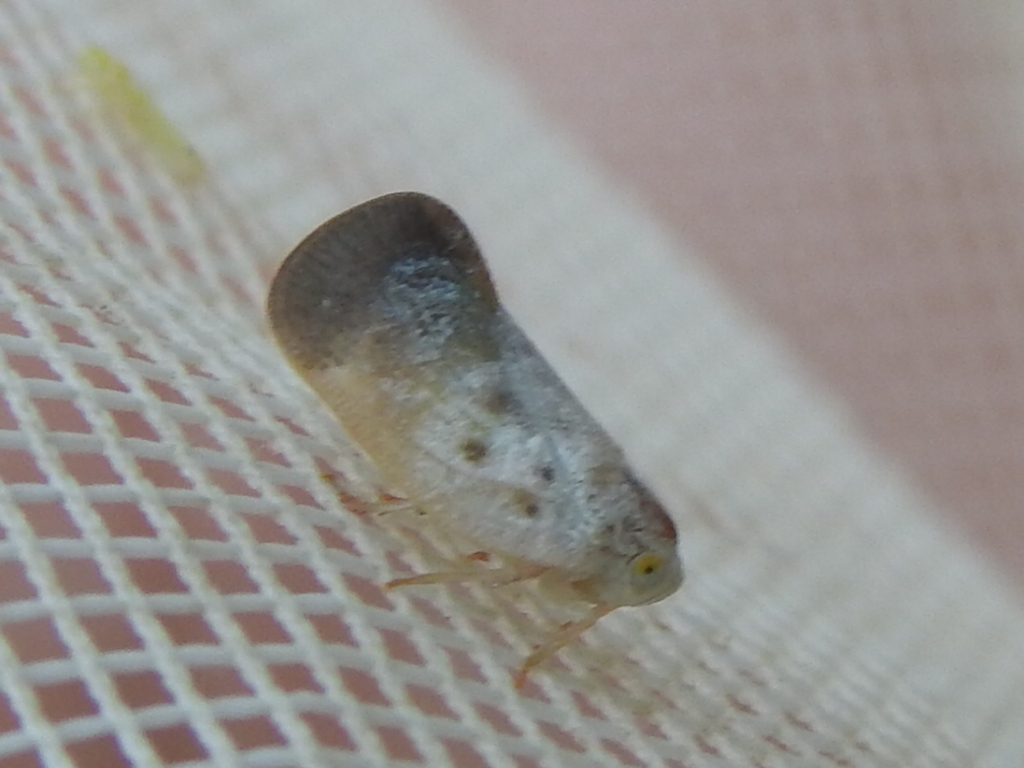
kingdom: Animalia
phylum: Arthropoda
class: Insecta
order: Hemiptera
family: Flatidae
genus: Metcalfa
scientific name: Metcalfa pruinosa
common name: Citrus flatid planthopper
